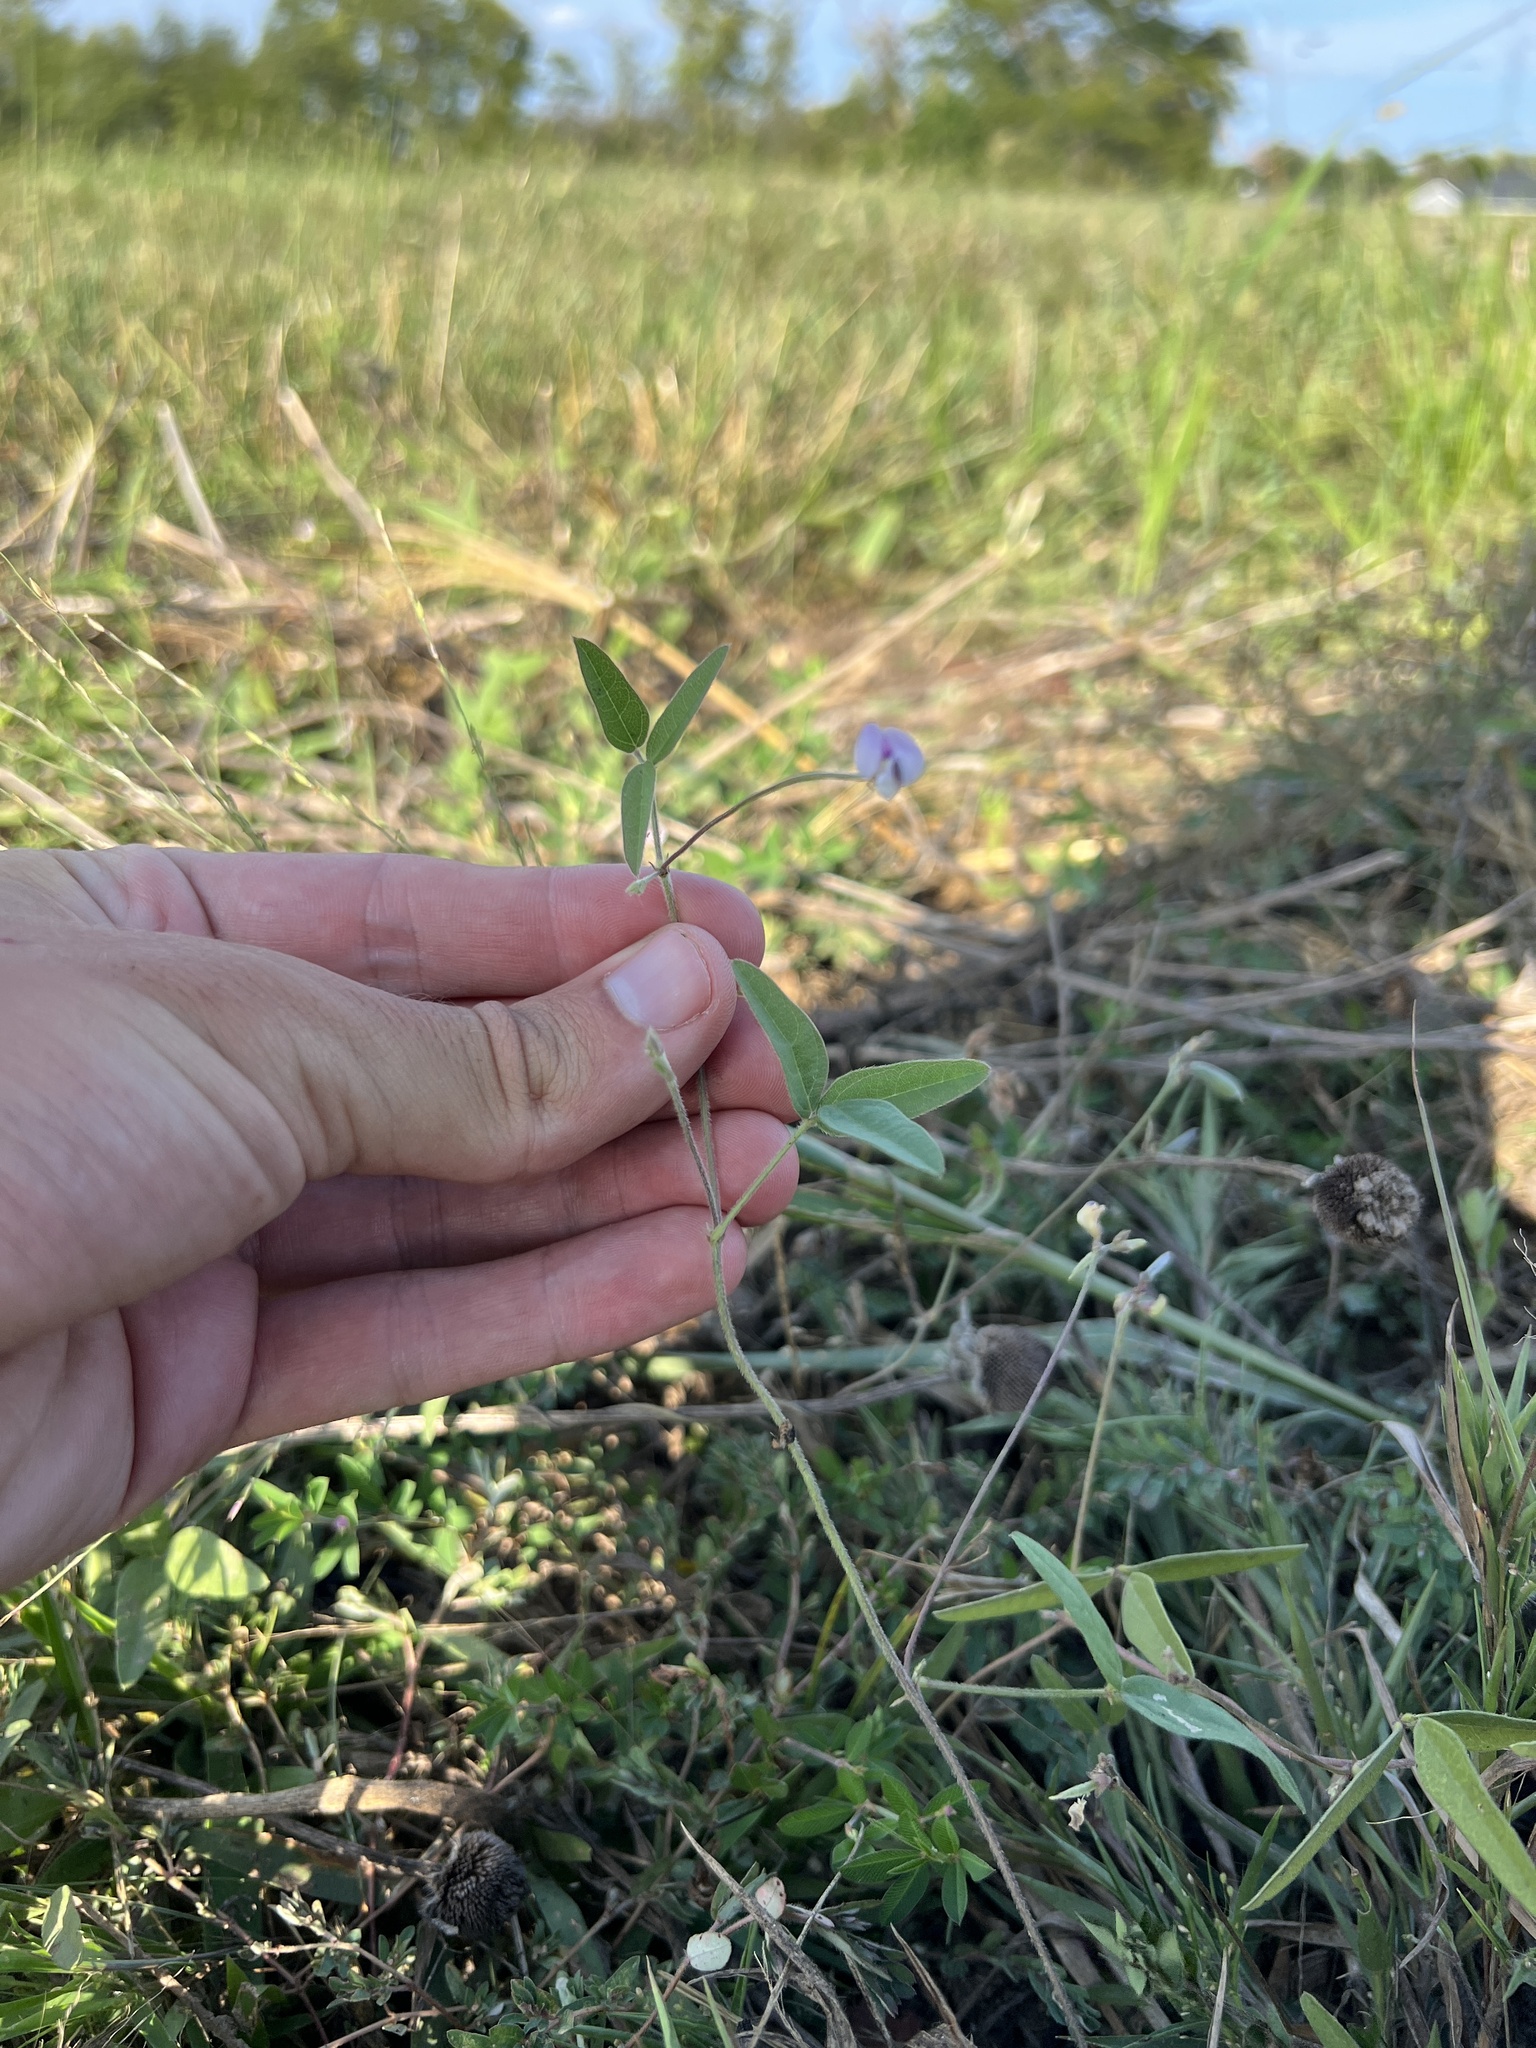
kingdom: Plantae
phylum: Tracheophyta
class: Magnoliopsida
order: Fabales
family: Fabaceae
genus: Strophostyles
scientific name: Strophostyles leiosperma
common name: Smooth-seed wild bean
